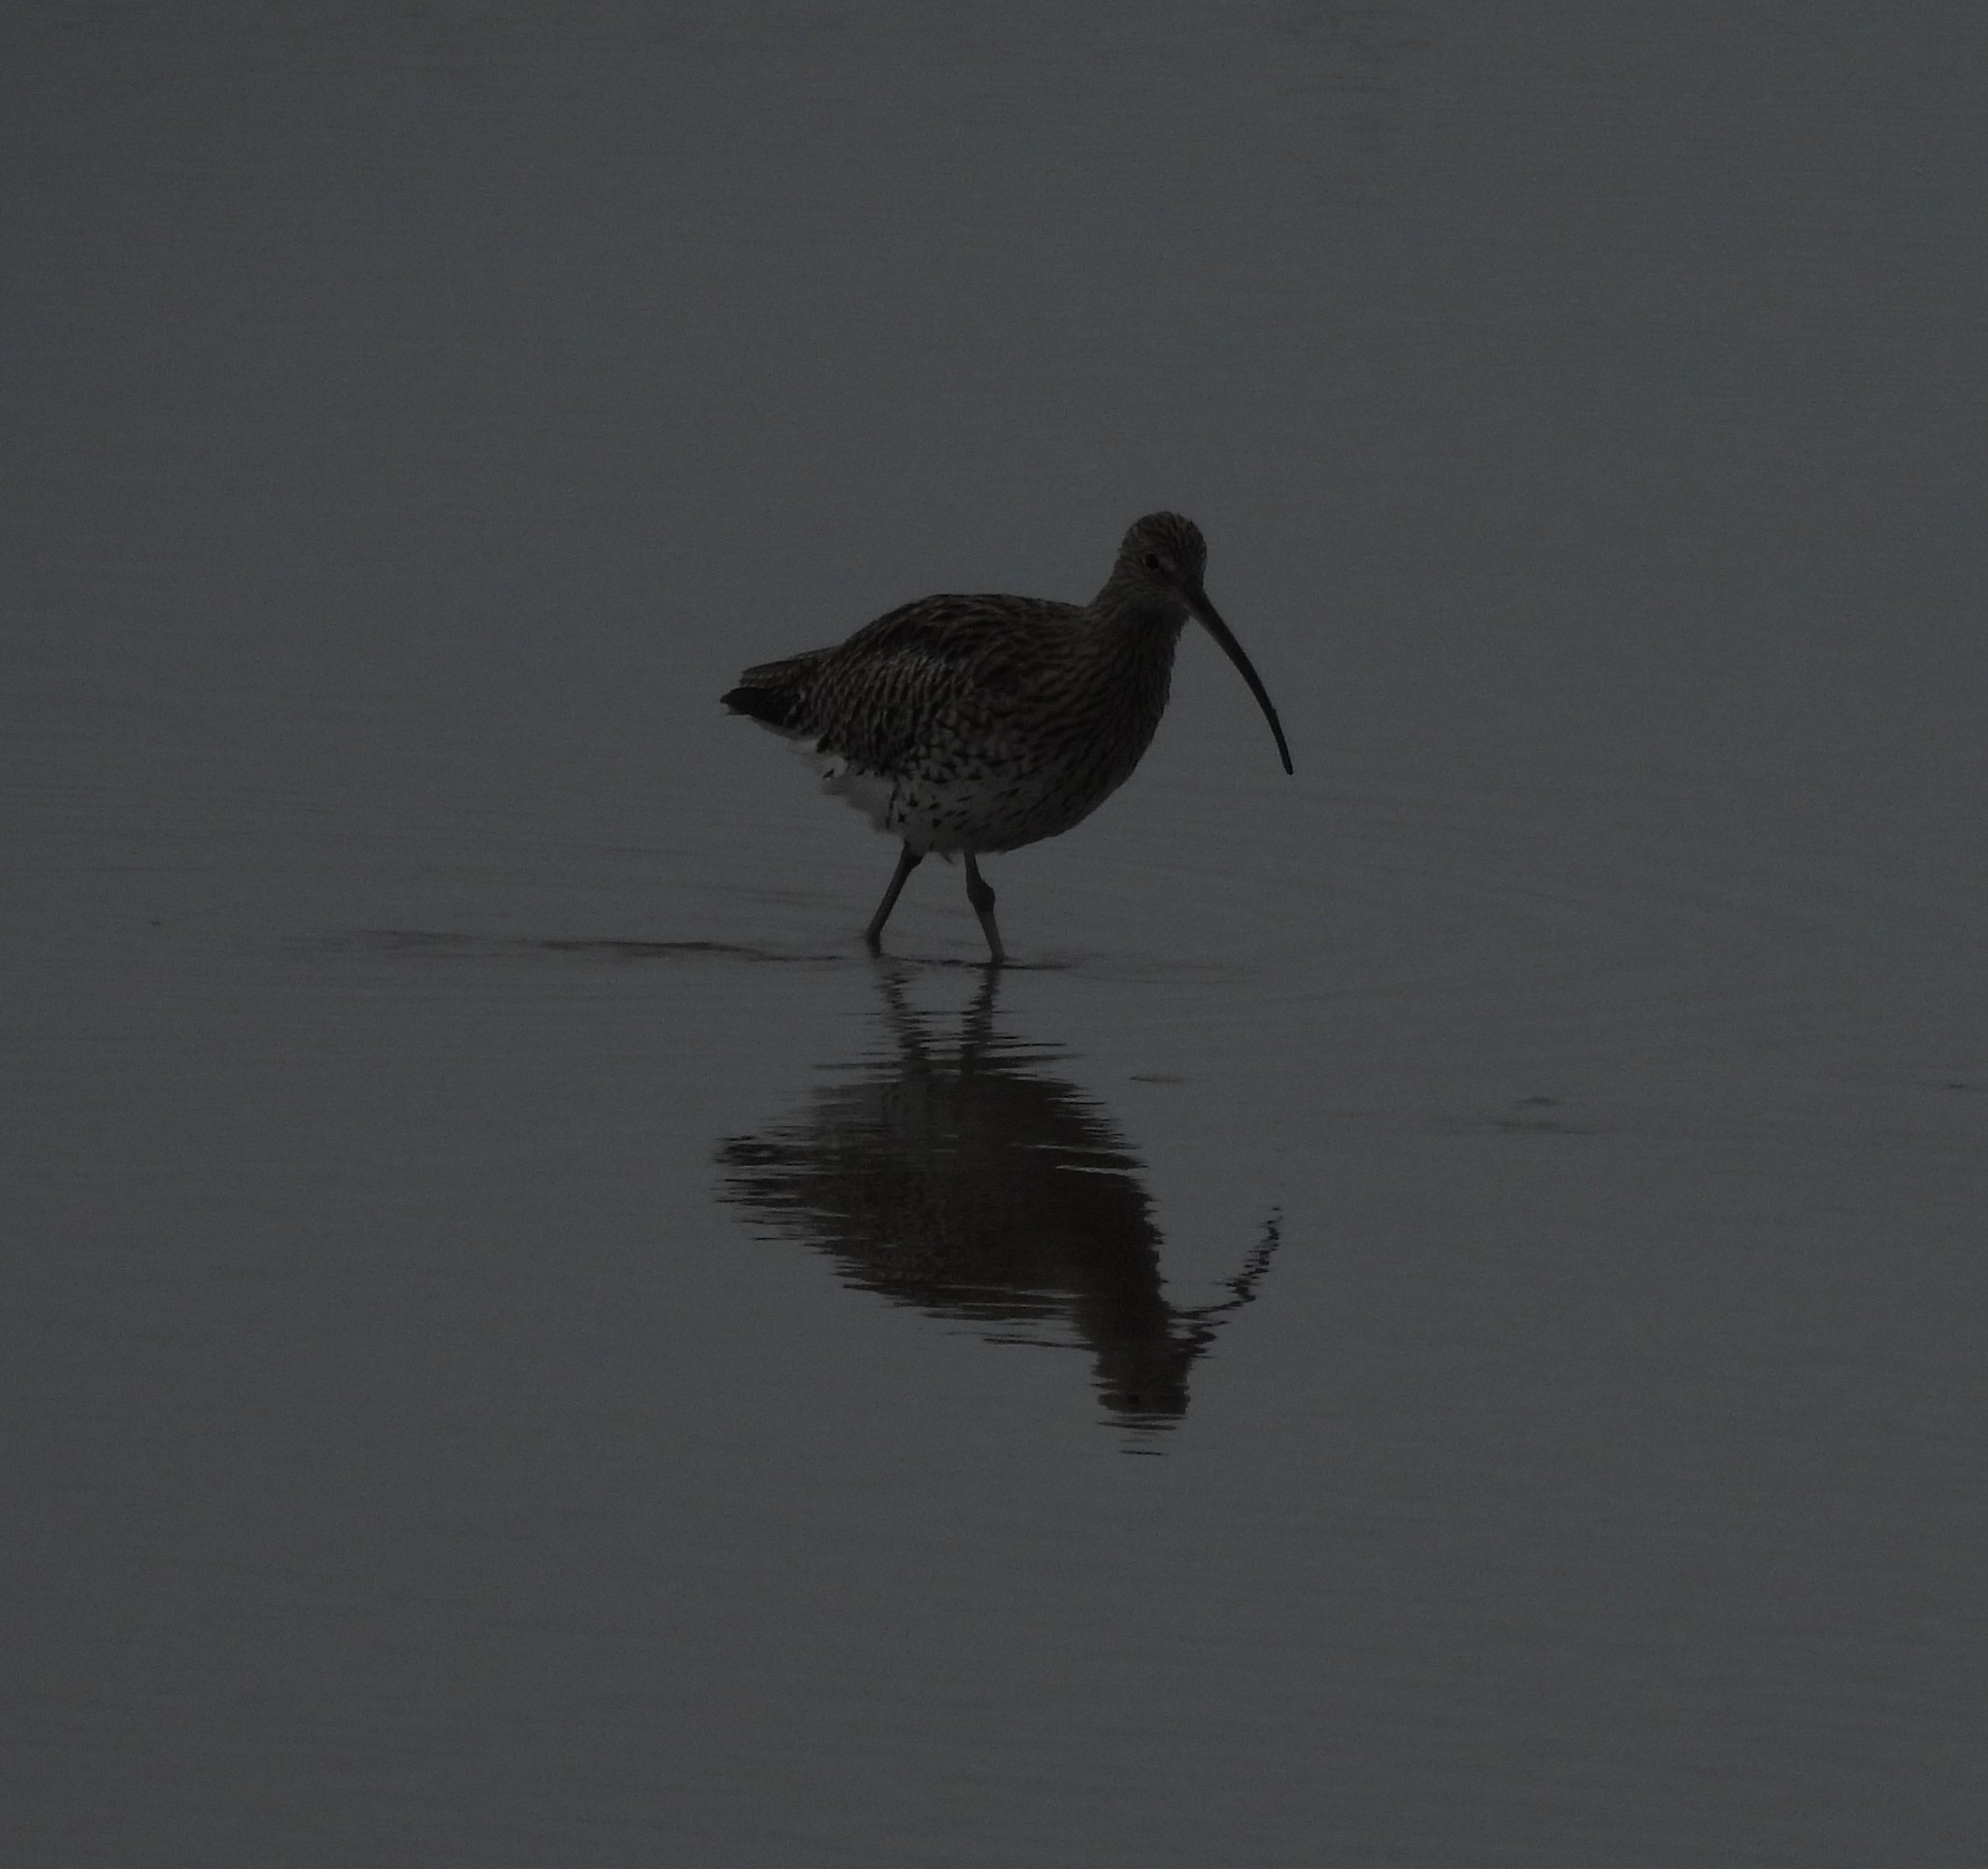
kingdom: Animalia
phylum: Chordata
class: Aves
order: Charadriiformes
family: Scolopacidae
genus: Numenius
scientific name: Numenius arquata
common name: Eurasian curlew
